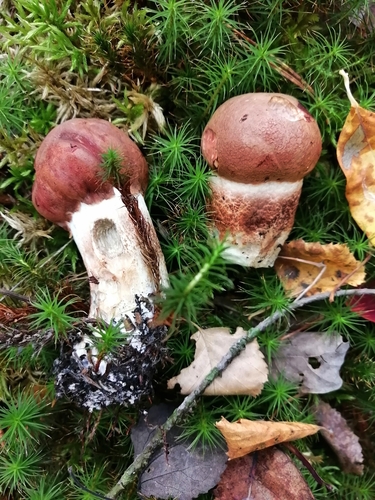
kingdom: Fungi
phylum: Basidiomycota
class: Agaricomycetes
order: Boletales
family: Boletaceae
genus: Leccinum
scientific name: Leccinum aurantiacum
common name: Orange bolete
